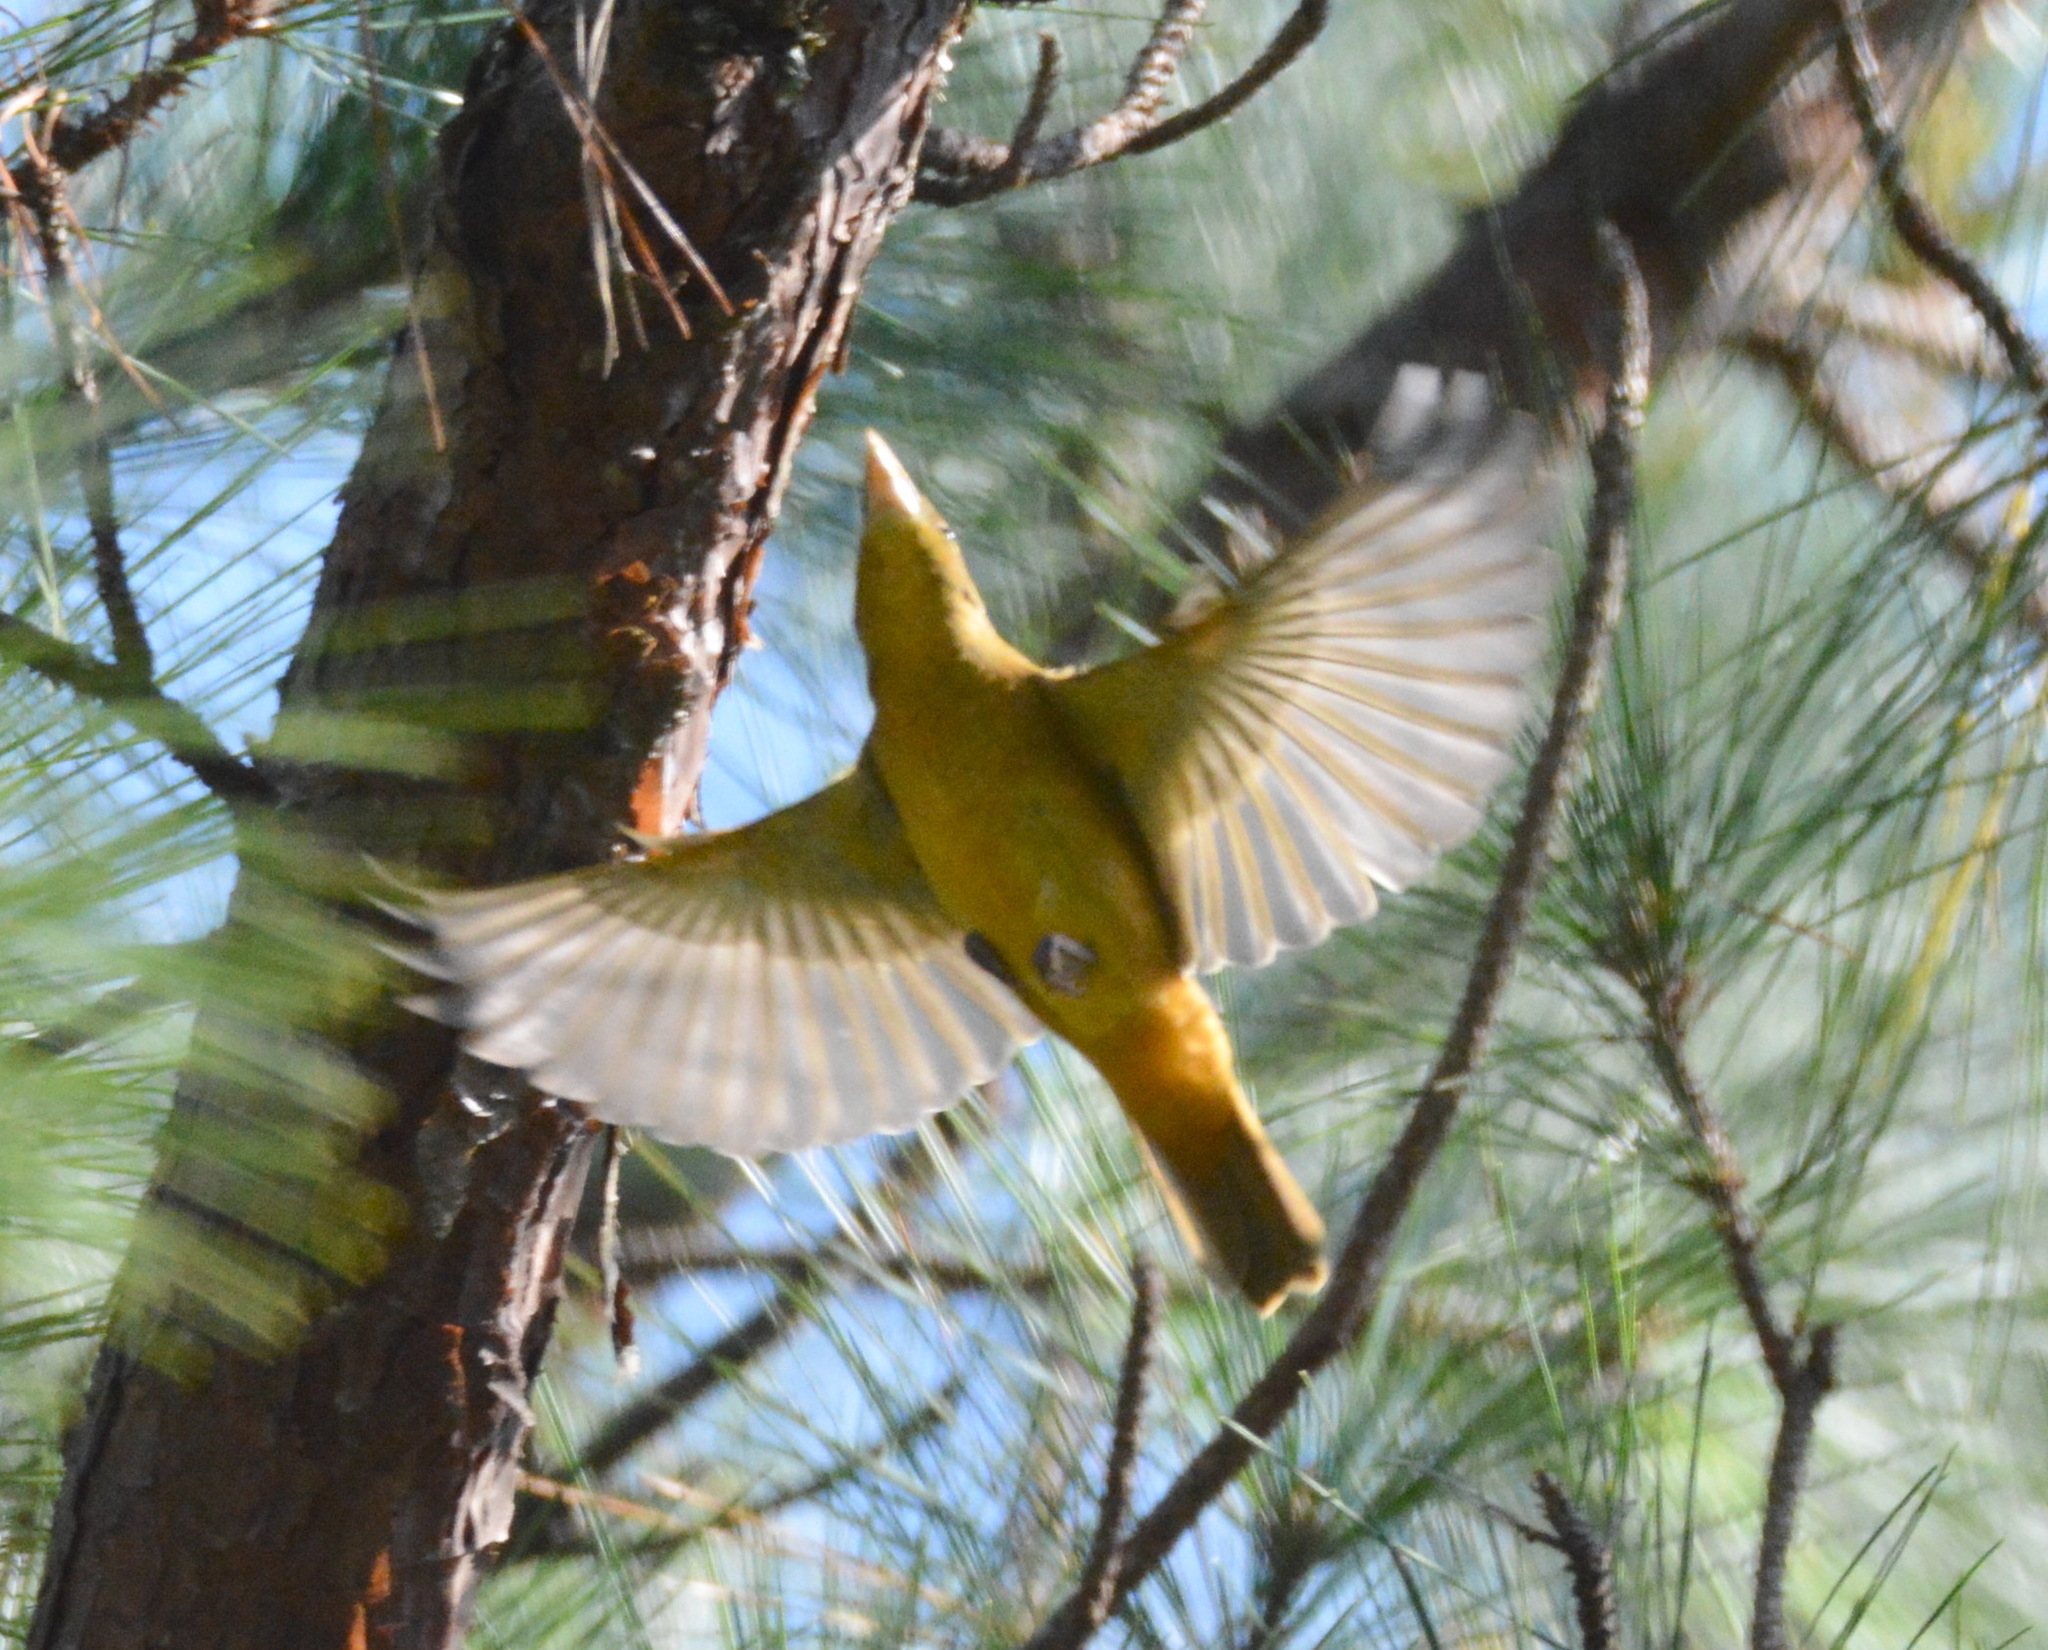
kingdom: Animalia
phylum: Chordata
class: Aves
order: Passeriformes
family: Cardinalidae
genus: Piranga
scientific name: Piranga rubra
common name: Summer tanager
